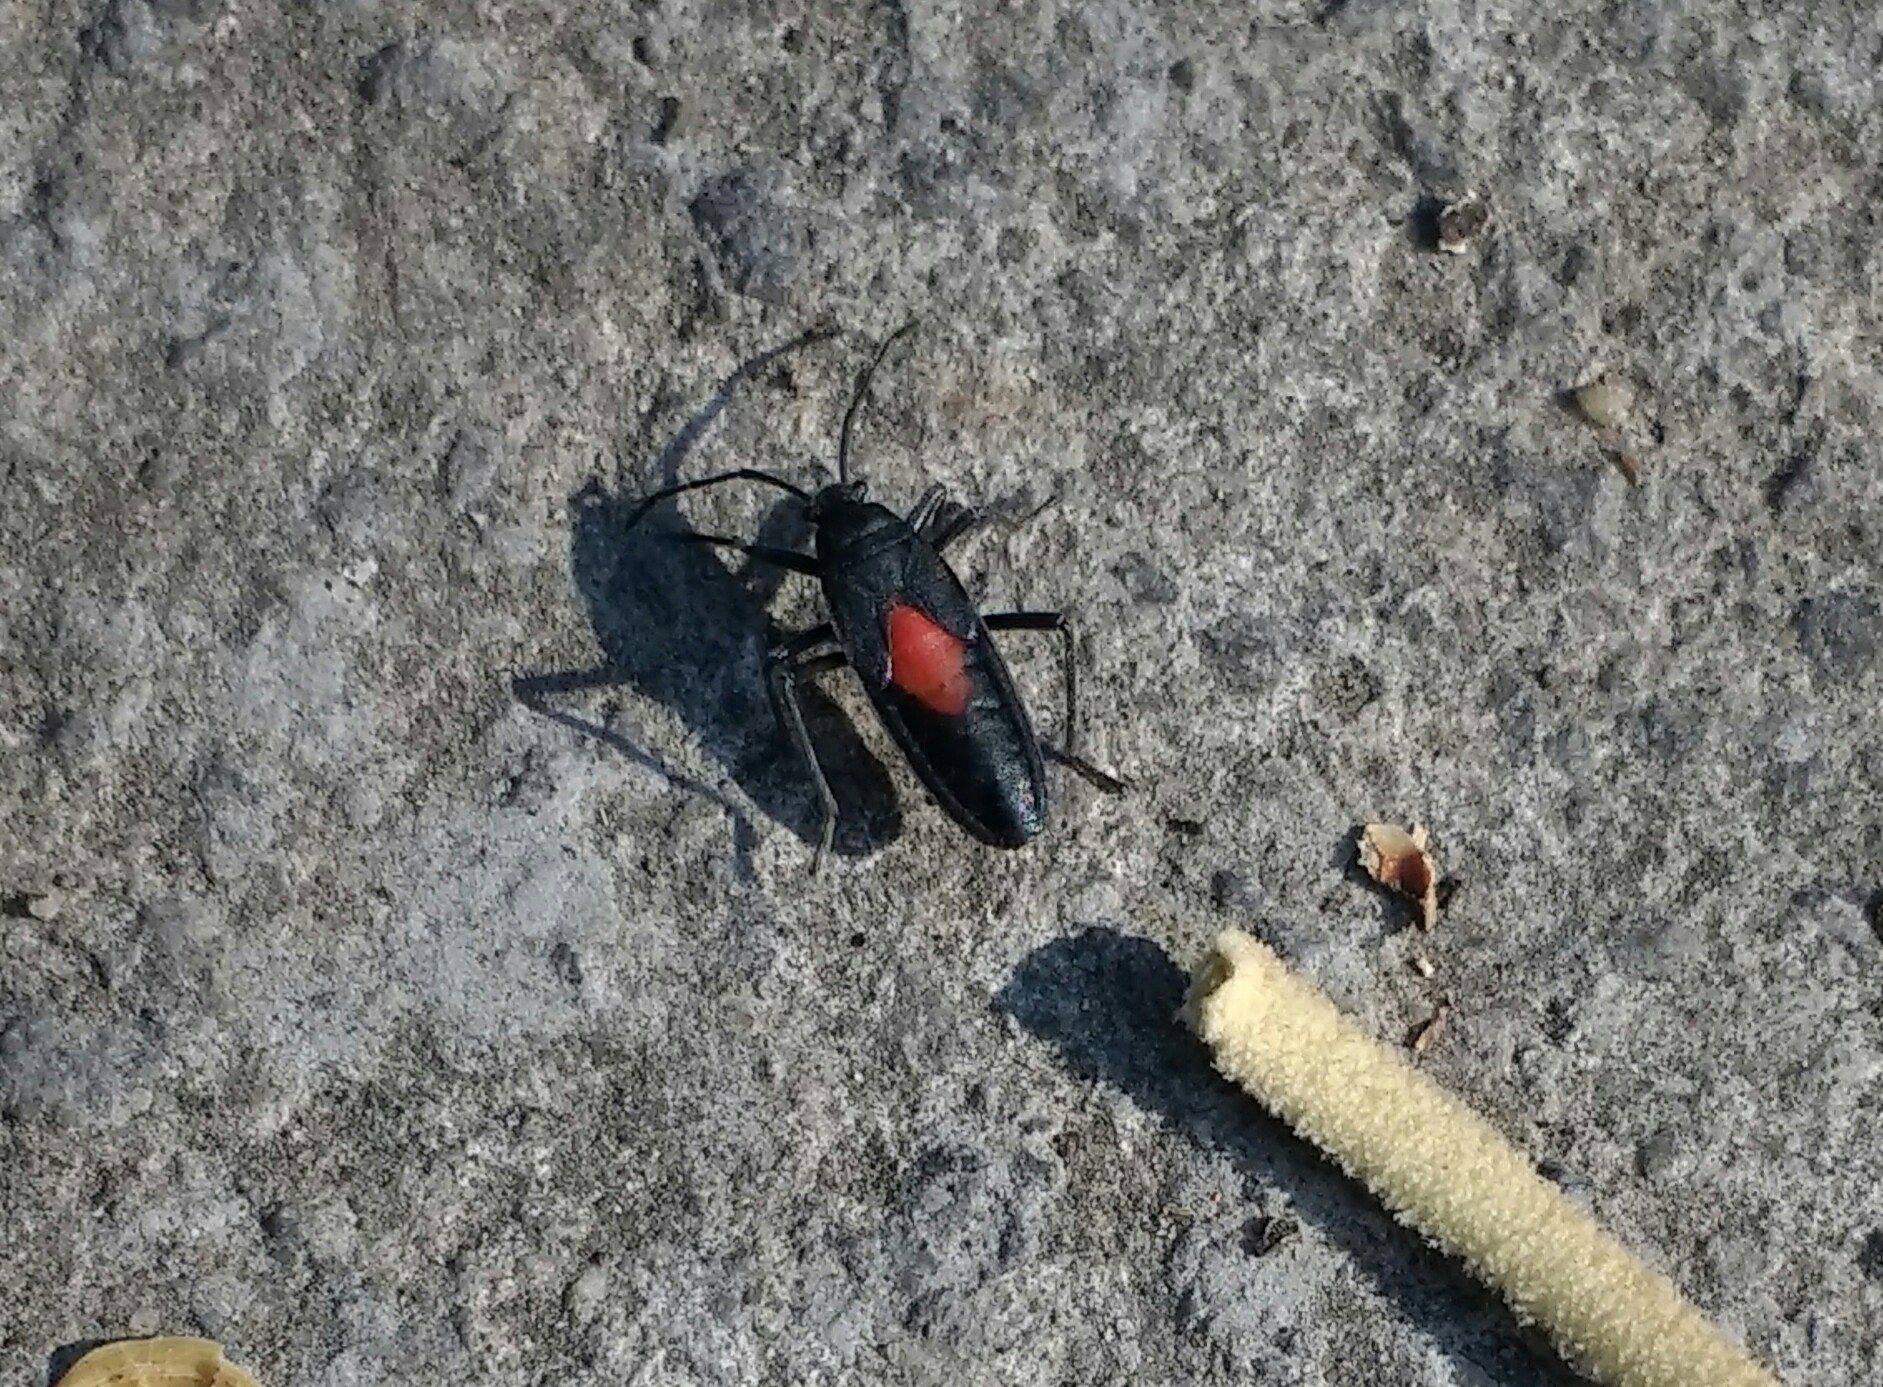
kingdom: Animalia
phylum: Arthropoda
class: Insecta
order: Hemiptera
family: Largidae
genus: Stenomacra
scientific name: Stenomacra marginella
